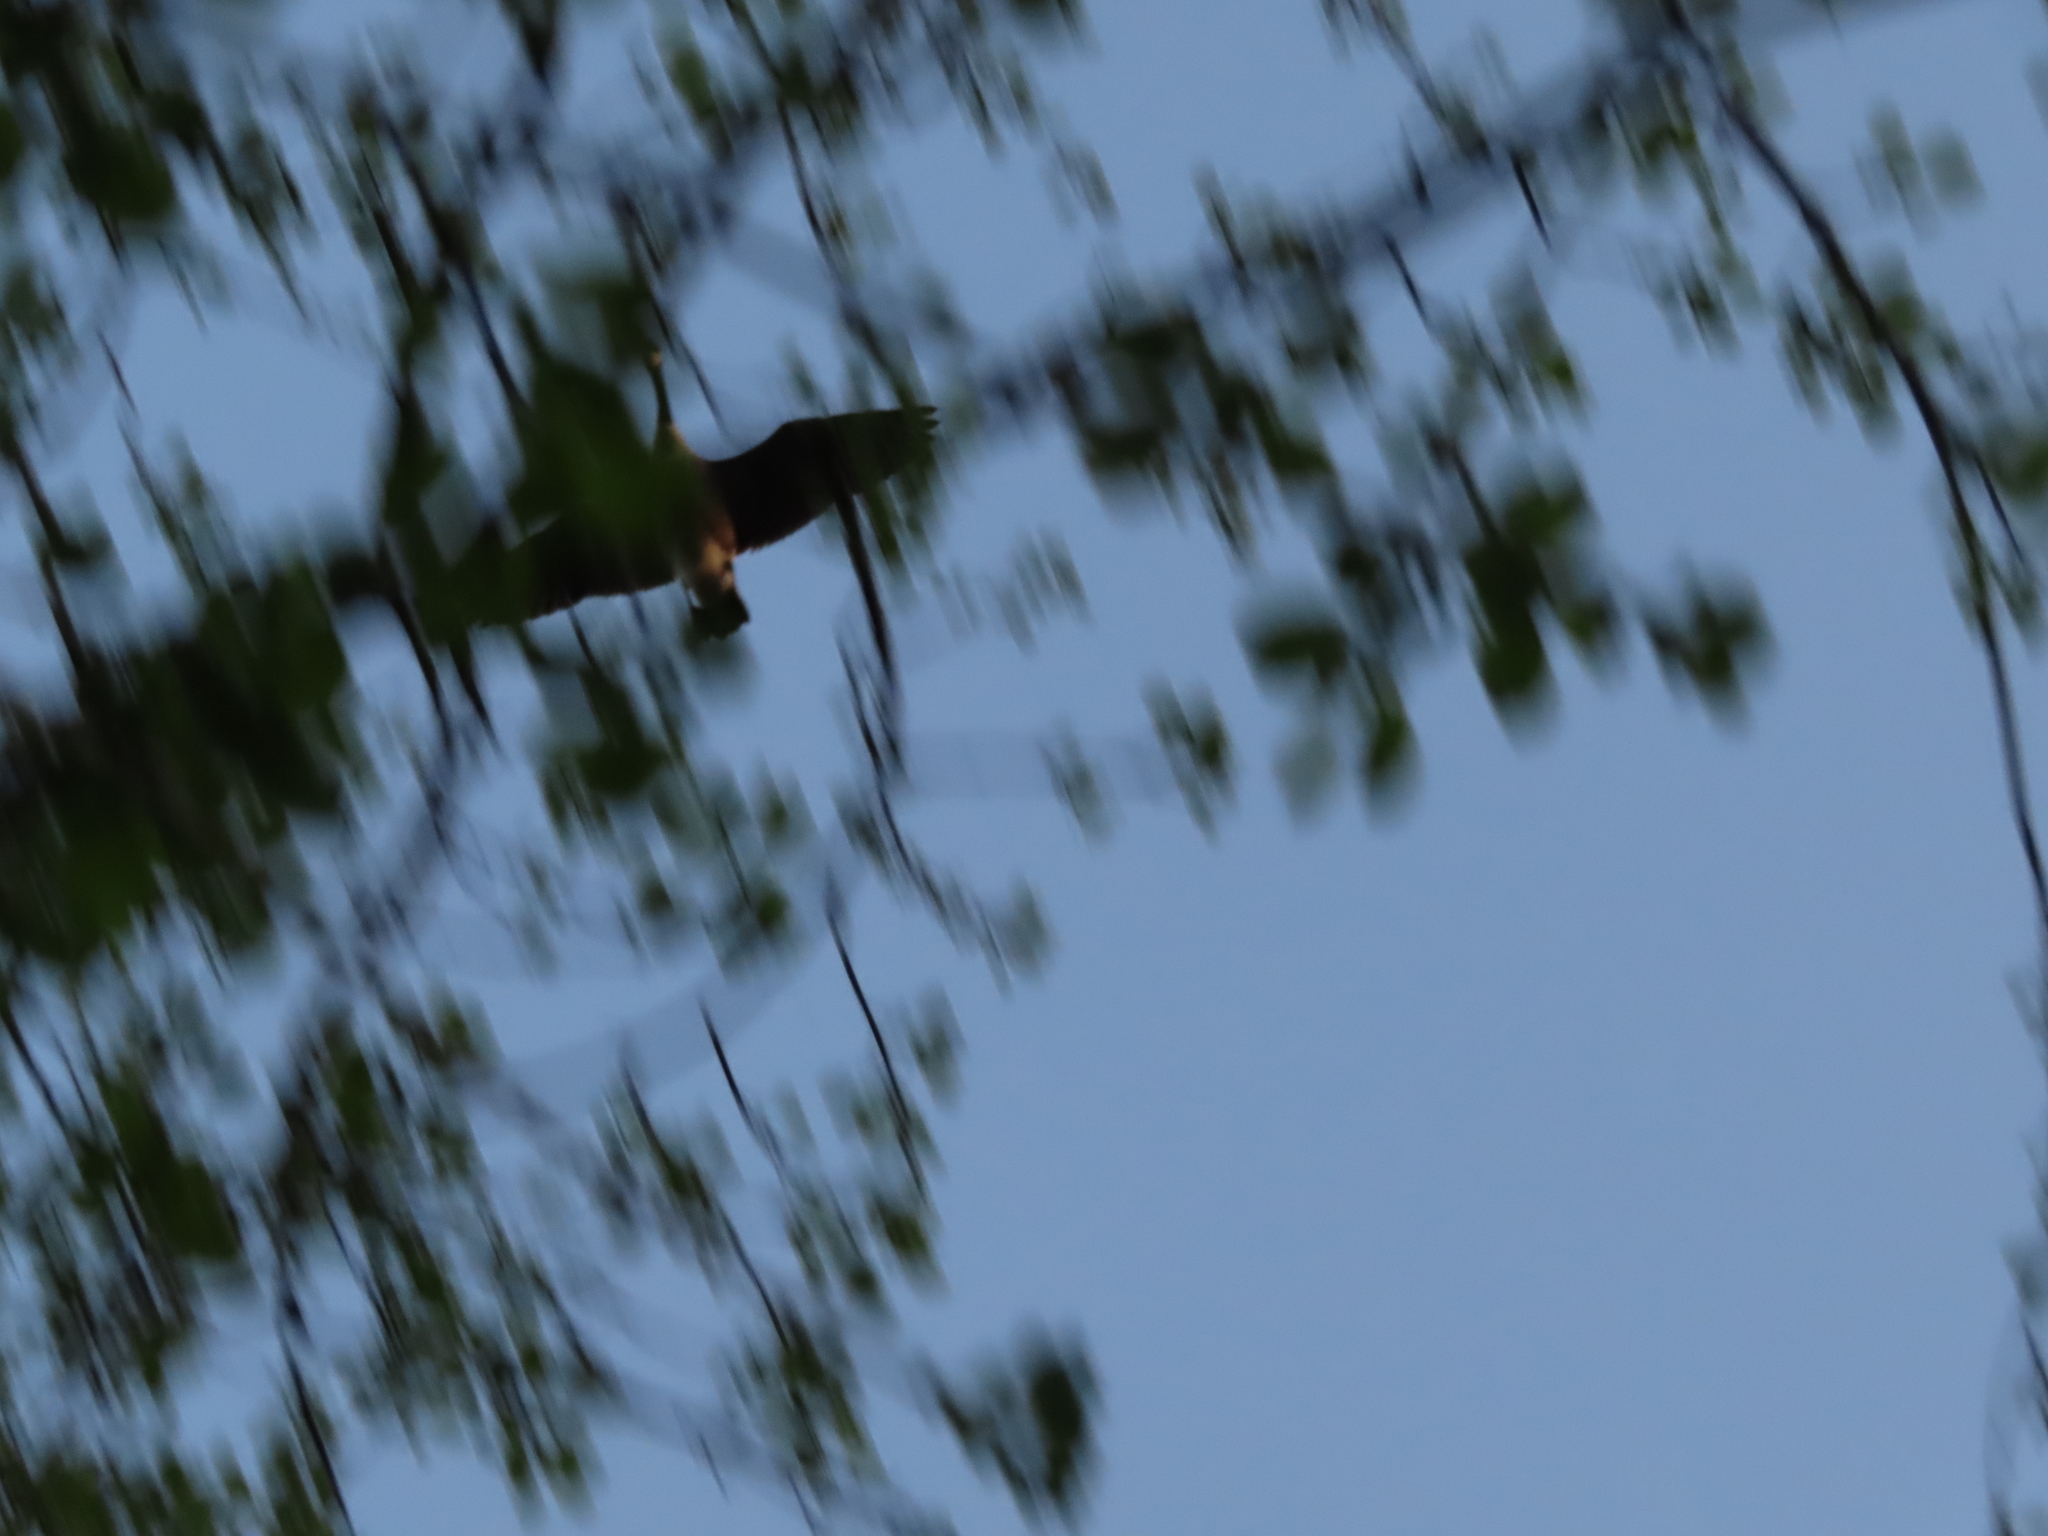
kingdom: Animalia
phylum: Chordata
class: Aves
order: Anseriformes
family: Anatidae
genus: Branta
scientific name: Branta canadensis
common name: Canada goose
